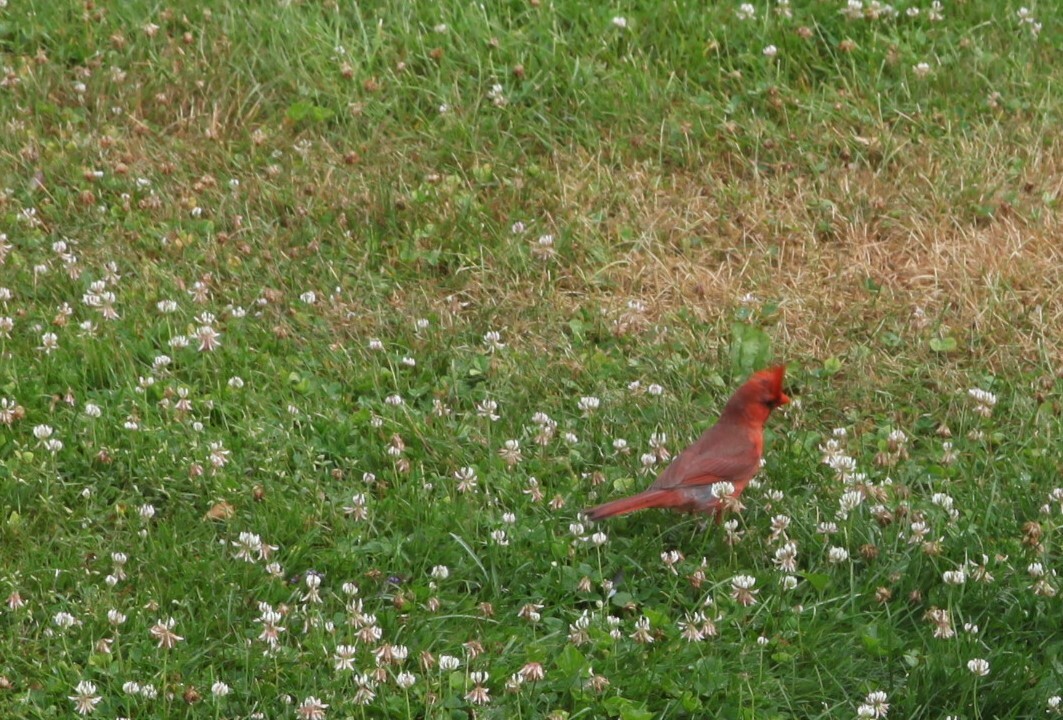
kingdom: Animalia
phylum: Chordata
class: Aves
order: Passeriformes
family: Cardinalidae
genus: Cardinalis
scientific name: Cardinalis cardinalis
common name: Northern cardinal
